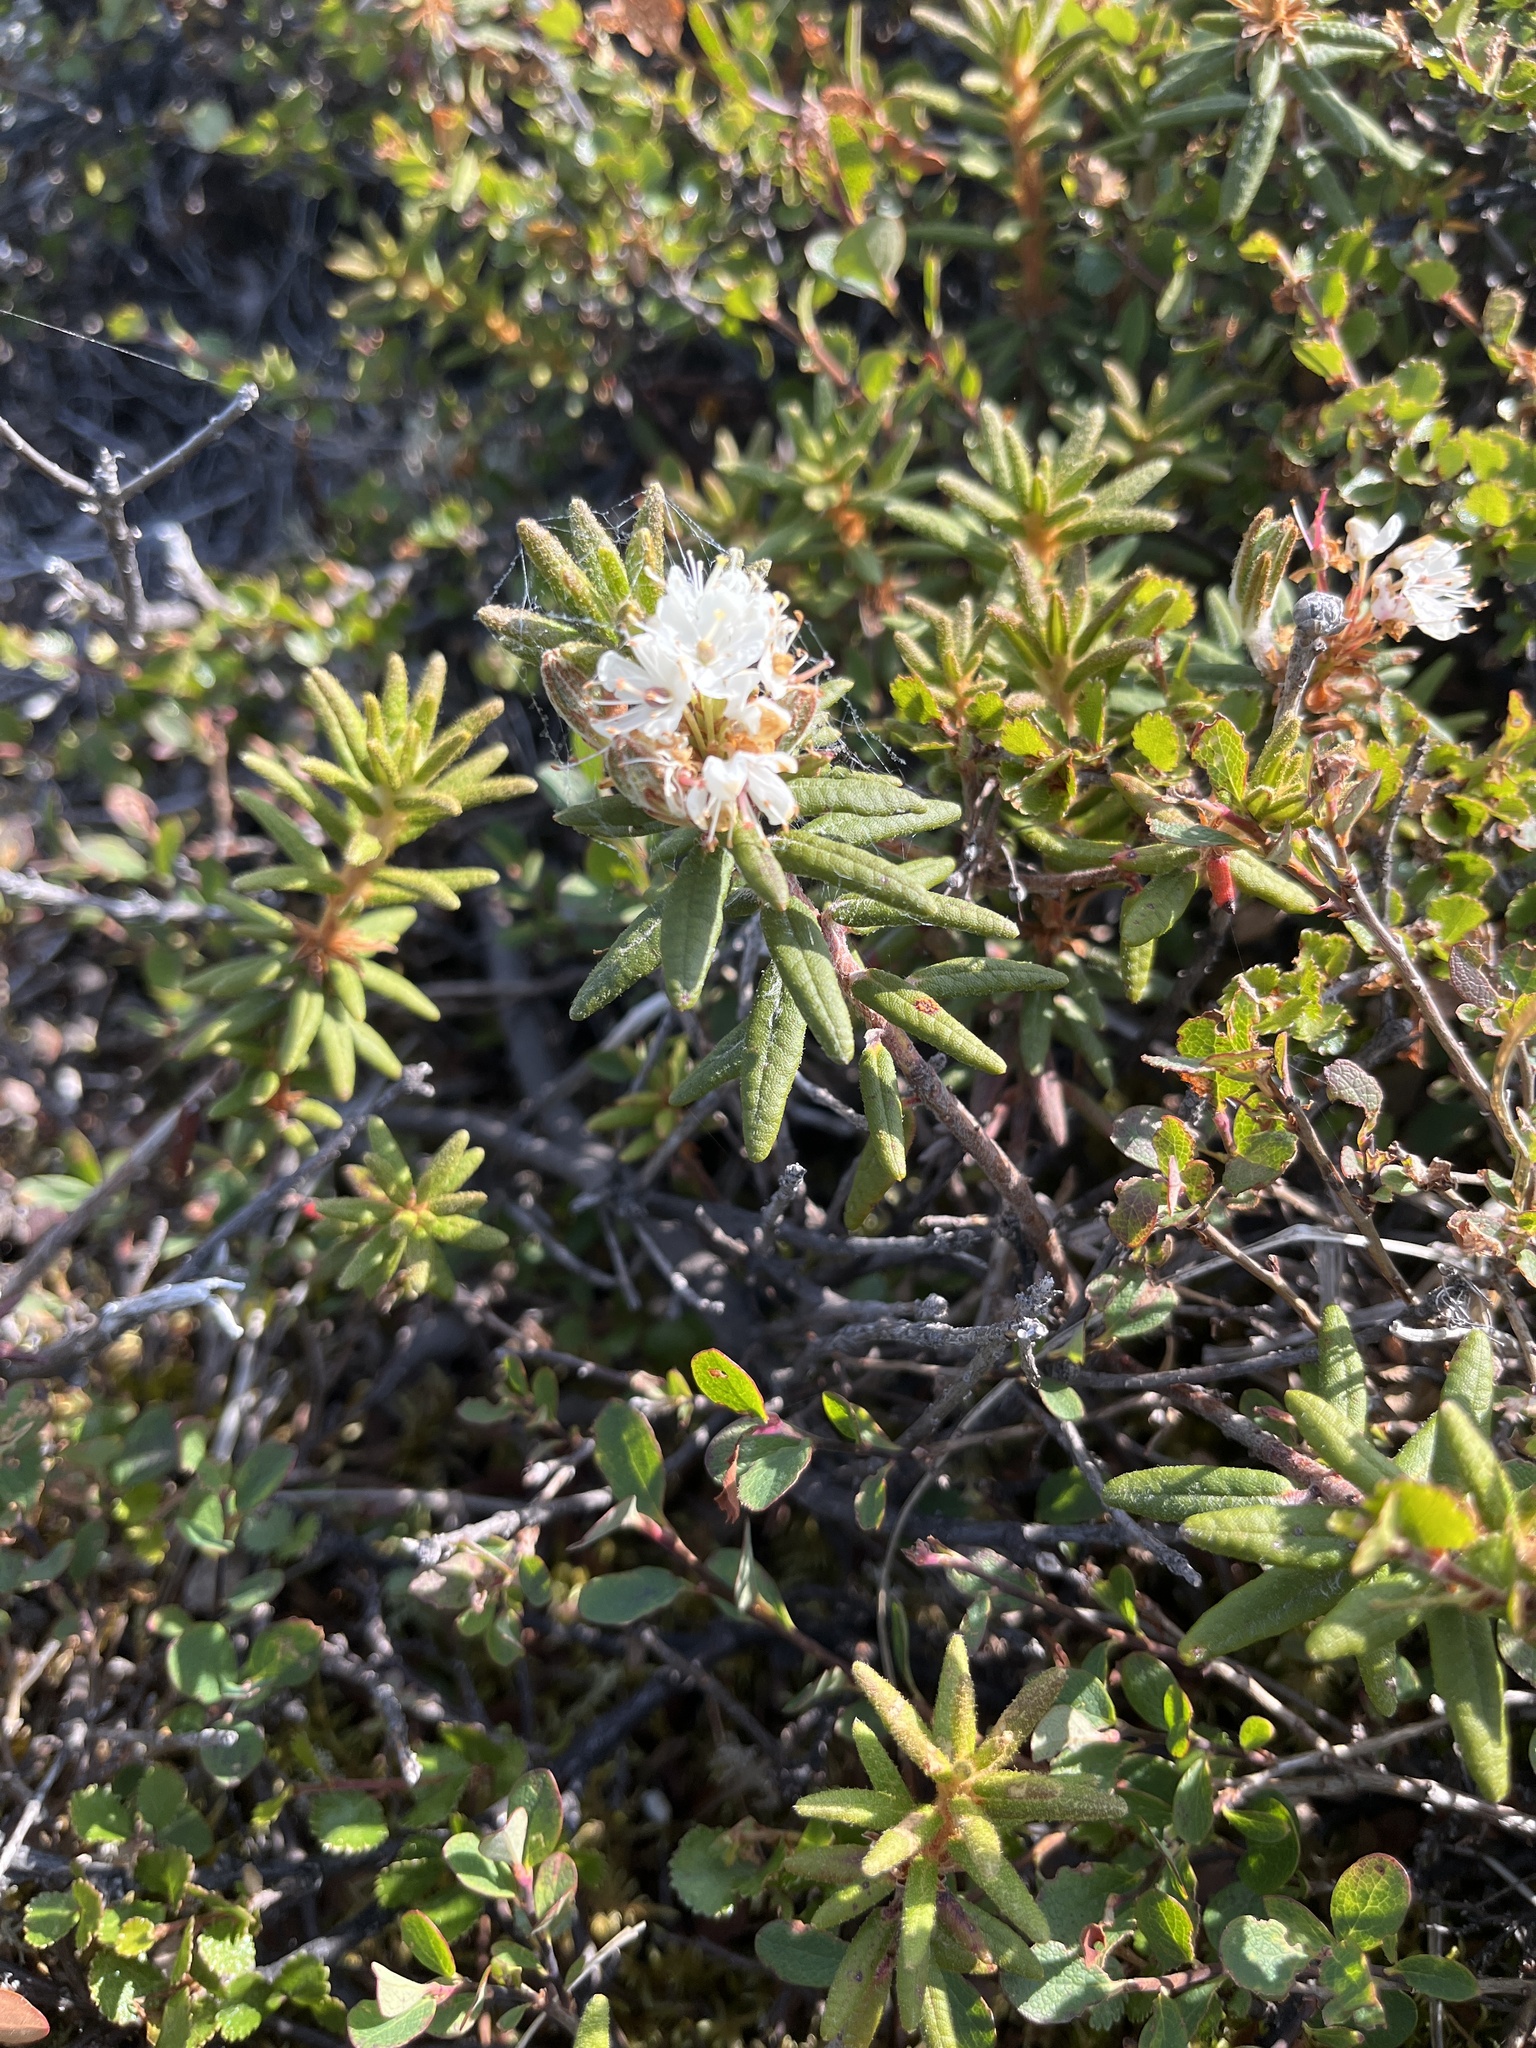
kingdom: Plantae
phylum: Tracheophyta
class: Magnoliopsida
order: Ericales
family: Ericaceae
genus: Rhododendron
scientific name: Rhododendron groenlandicum
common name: Bog labrador tea
